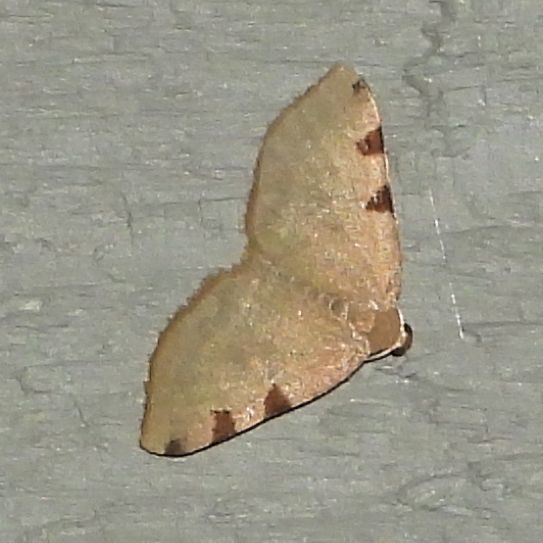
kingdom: Animalia
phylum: Arthropoda
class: Insecta
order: Lepidoptera
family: Geometridae
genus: Heterophleps
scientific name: Heterophleps triguttaria
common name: Three-spotted fillip
